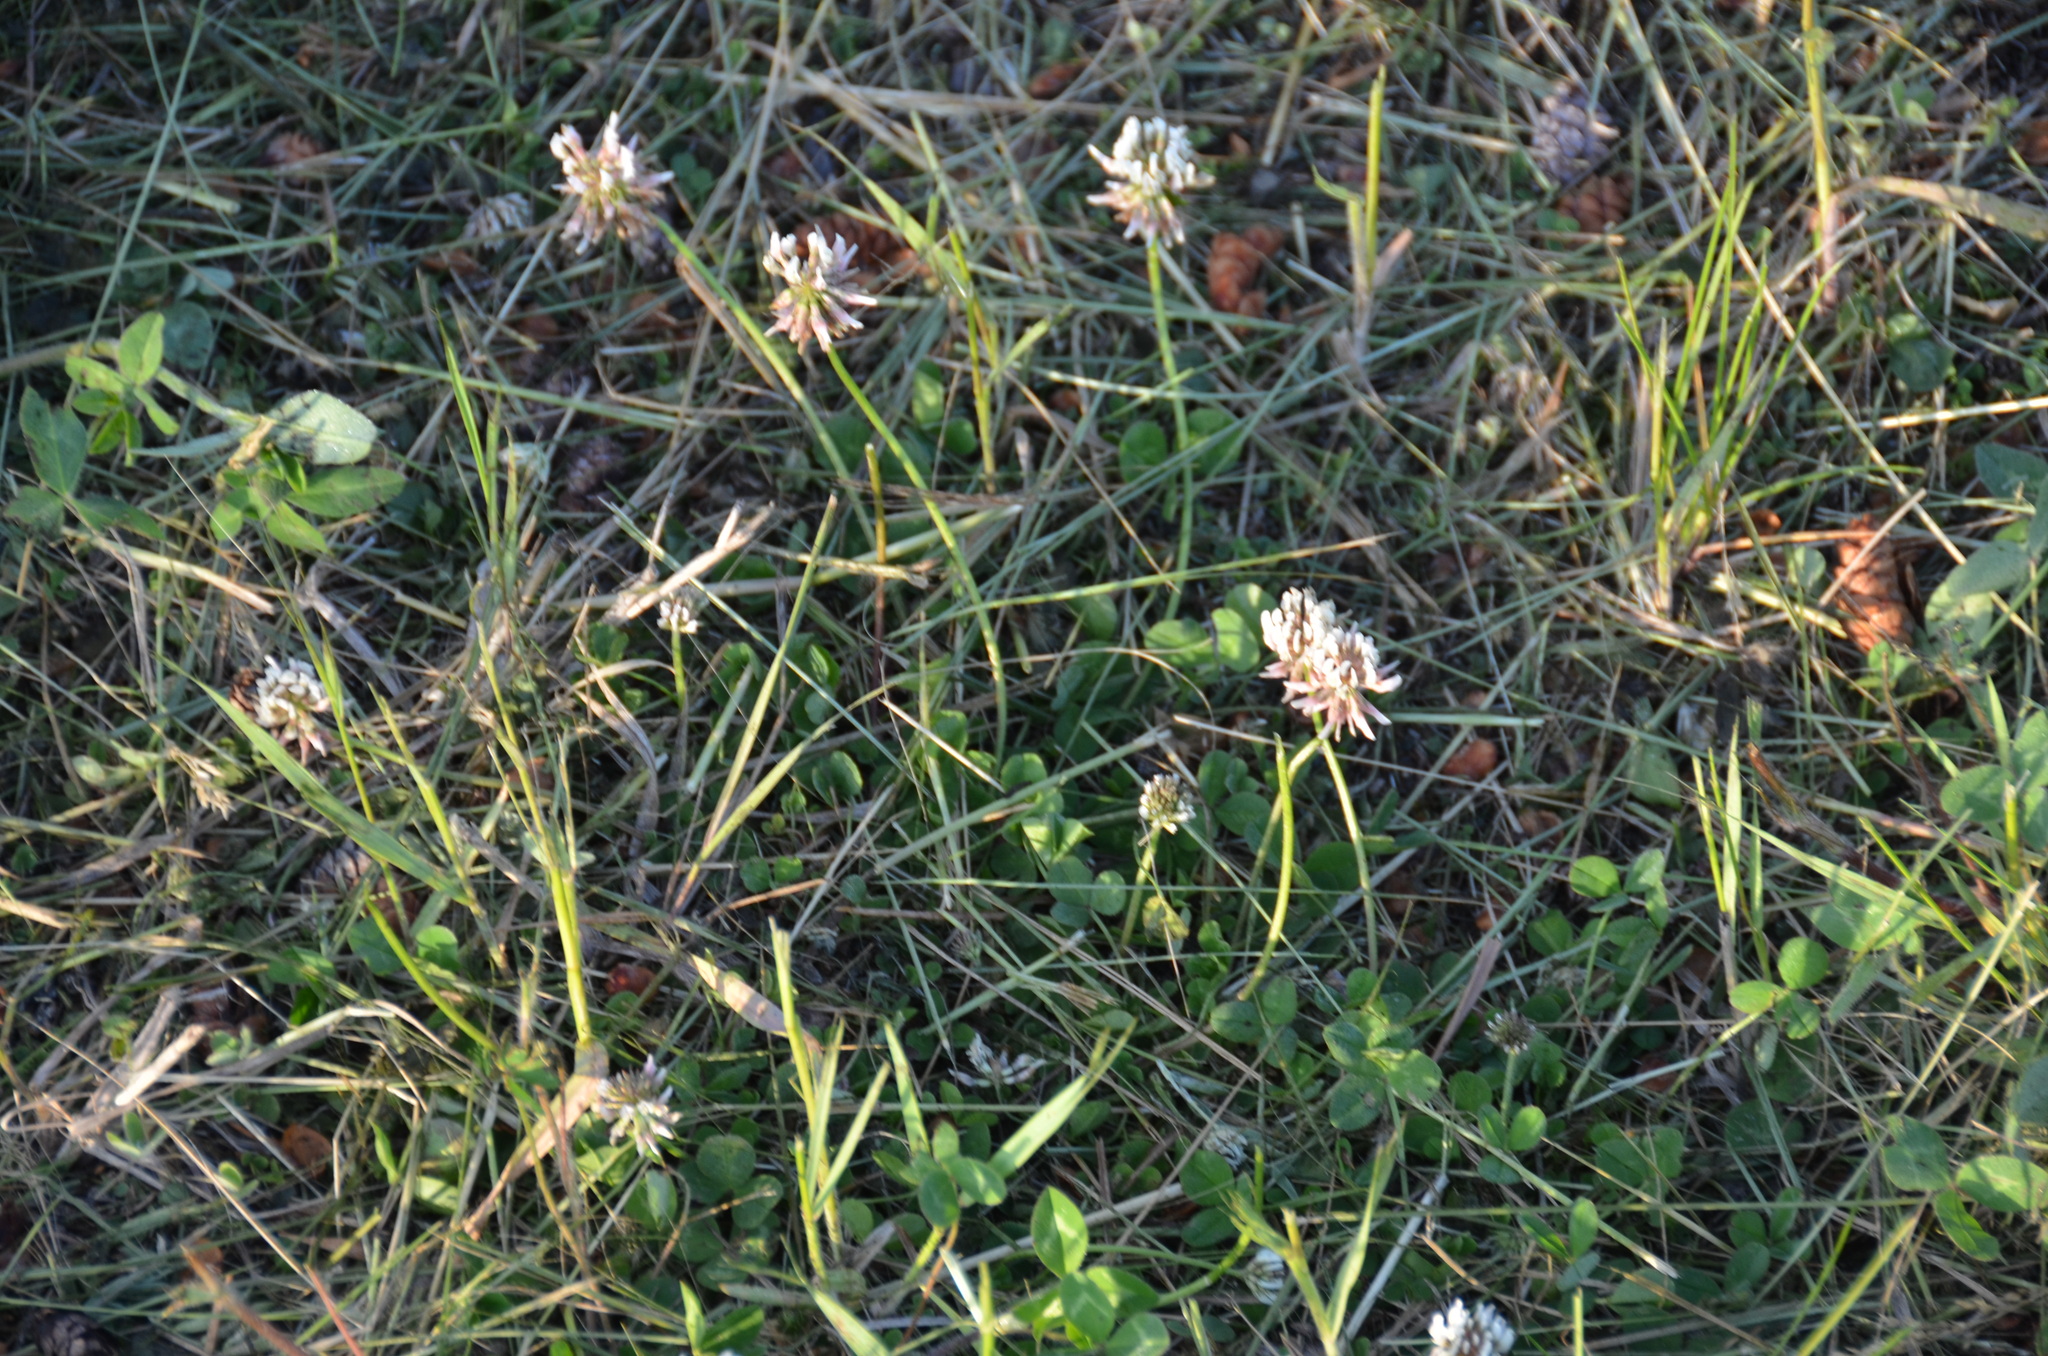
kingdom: Plantae
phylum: Tracheophyta
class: Magnoliopsida
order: Fabales
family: Fabaceae
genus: Trifolium
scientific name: Trifolium repens
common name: White clover
